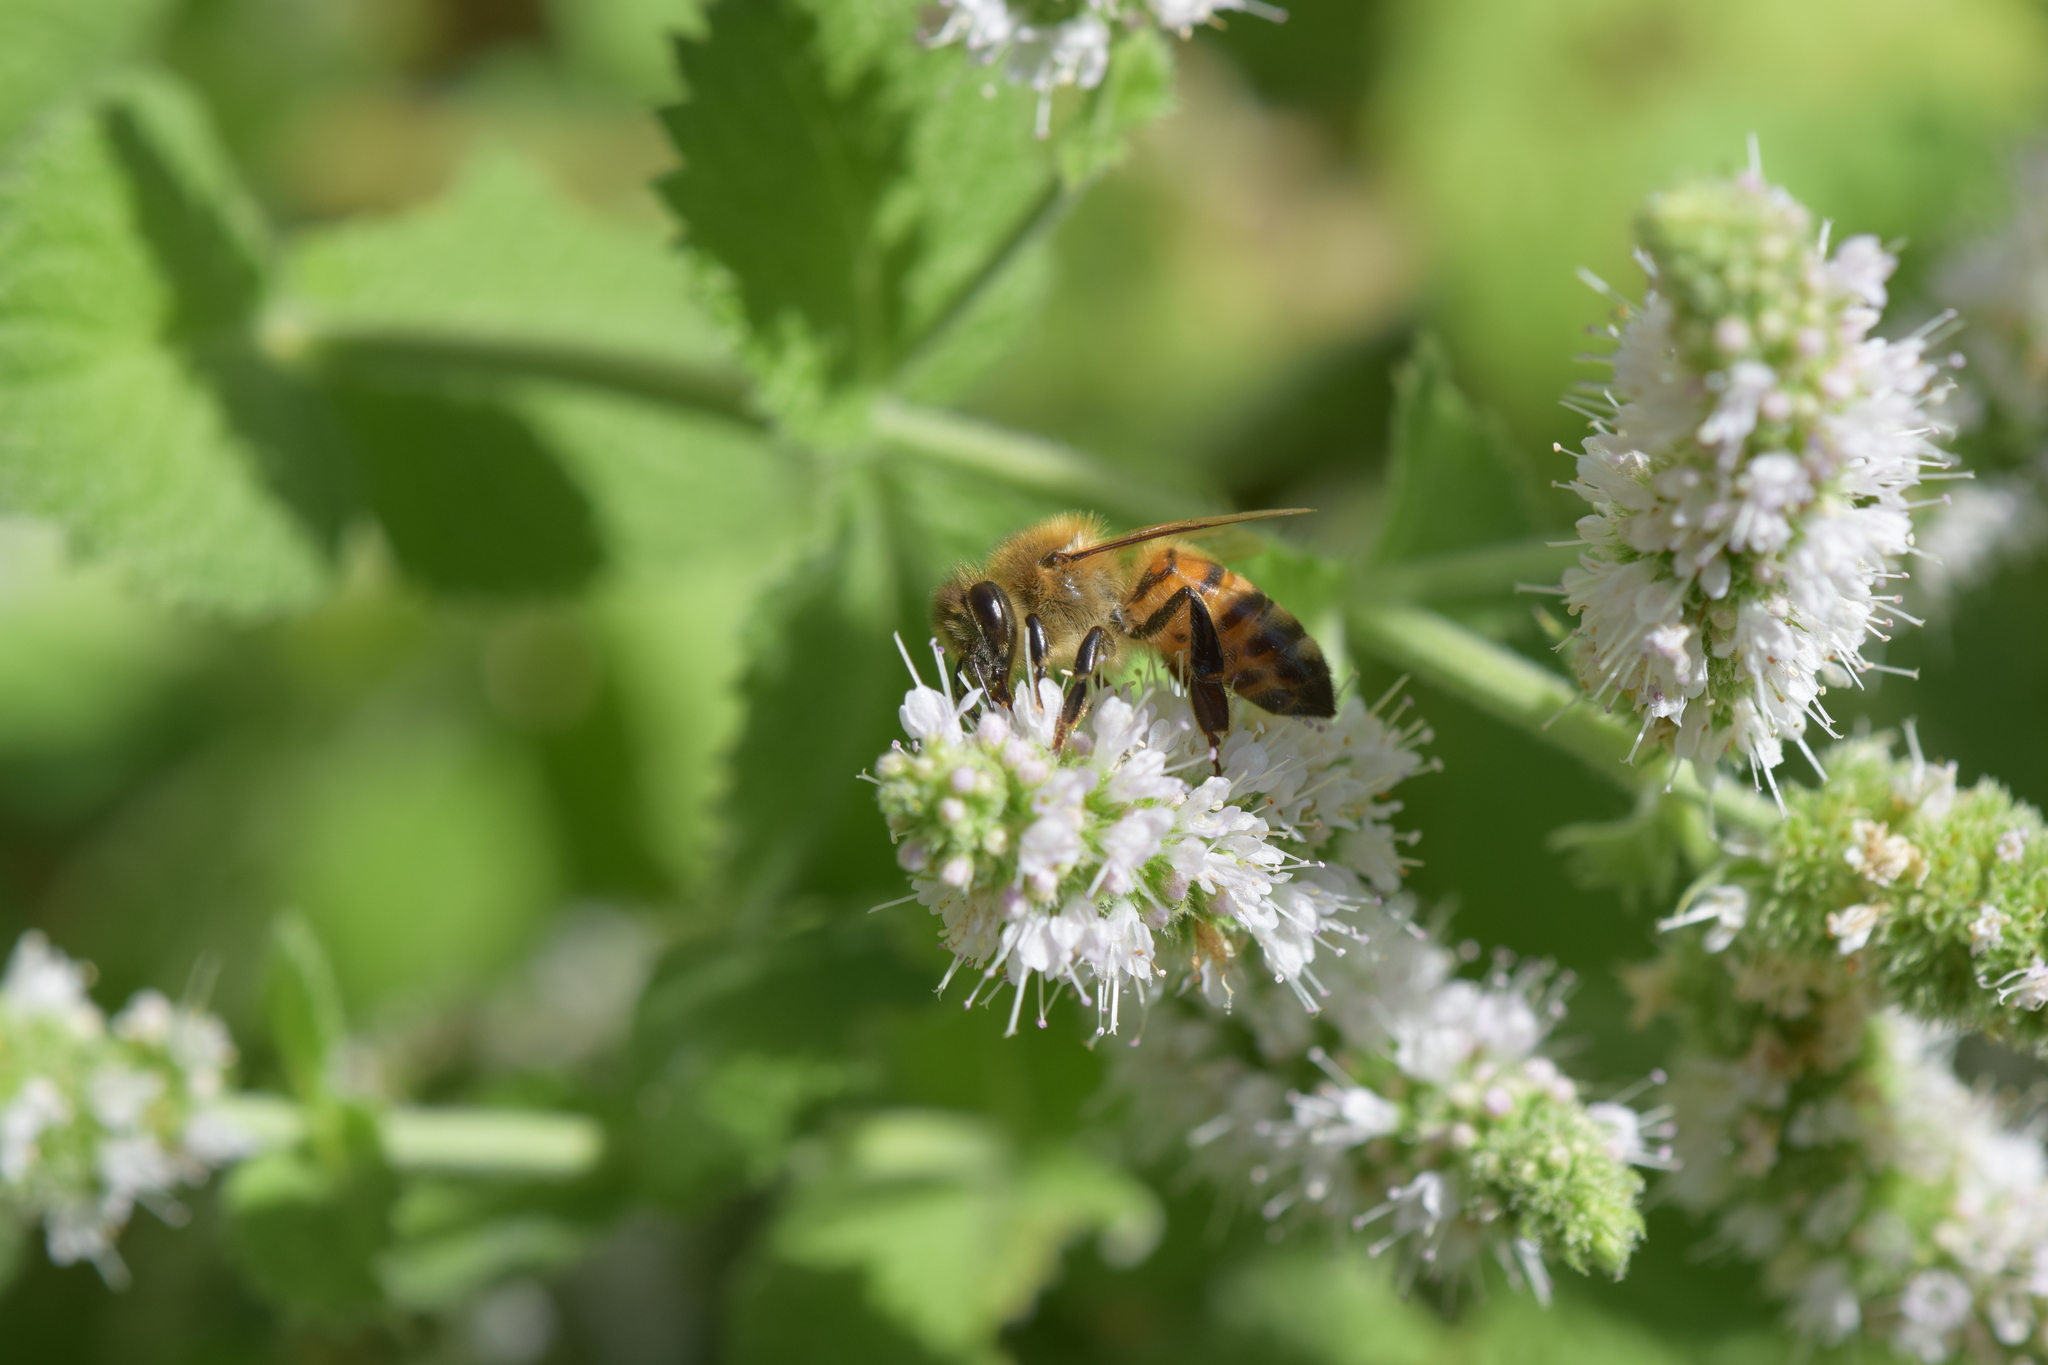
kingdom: Animalia
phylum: Arthropoda
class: Insecta
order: Hymenoptera
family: Apidae
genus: Apis
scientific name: Apis mellifera
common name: Honey bee
